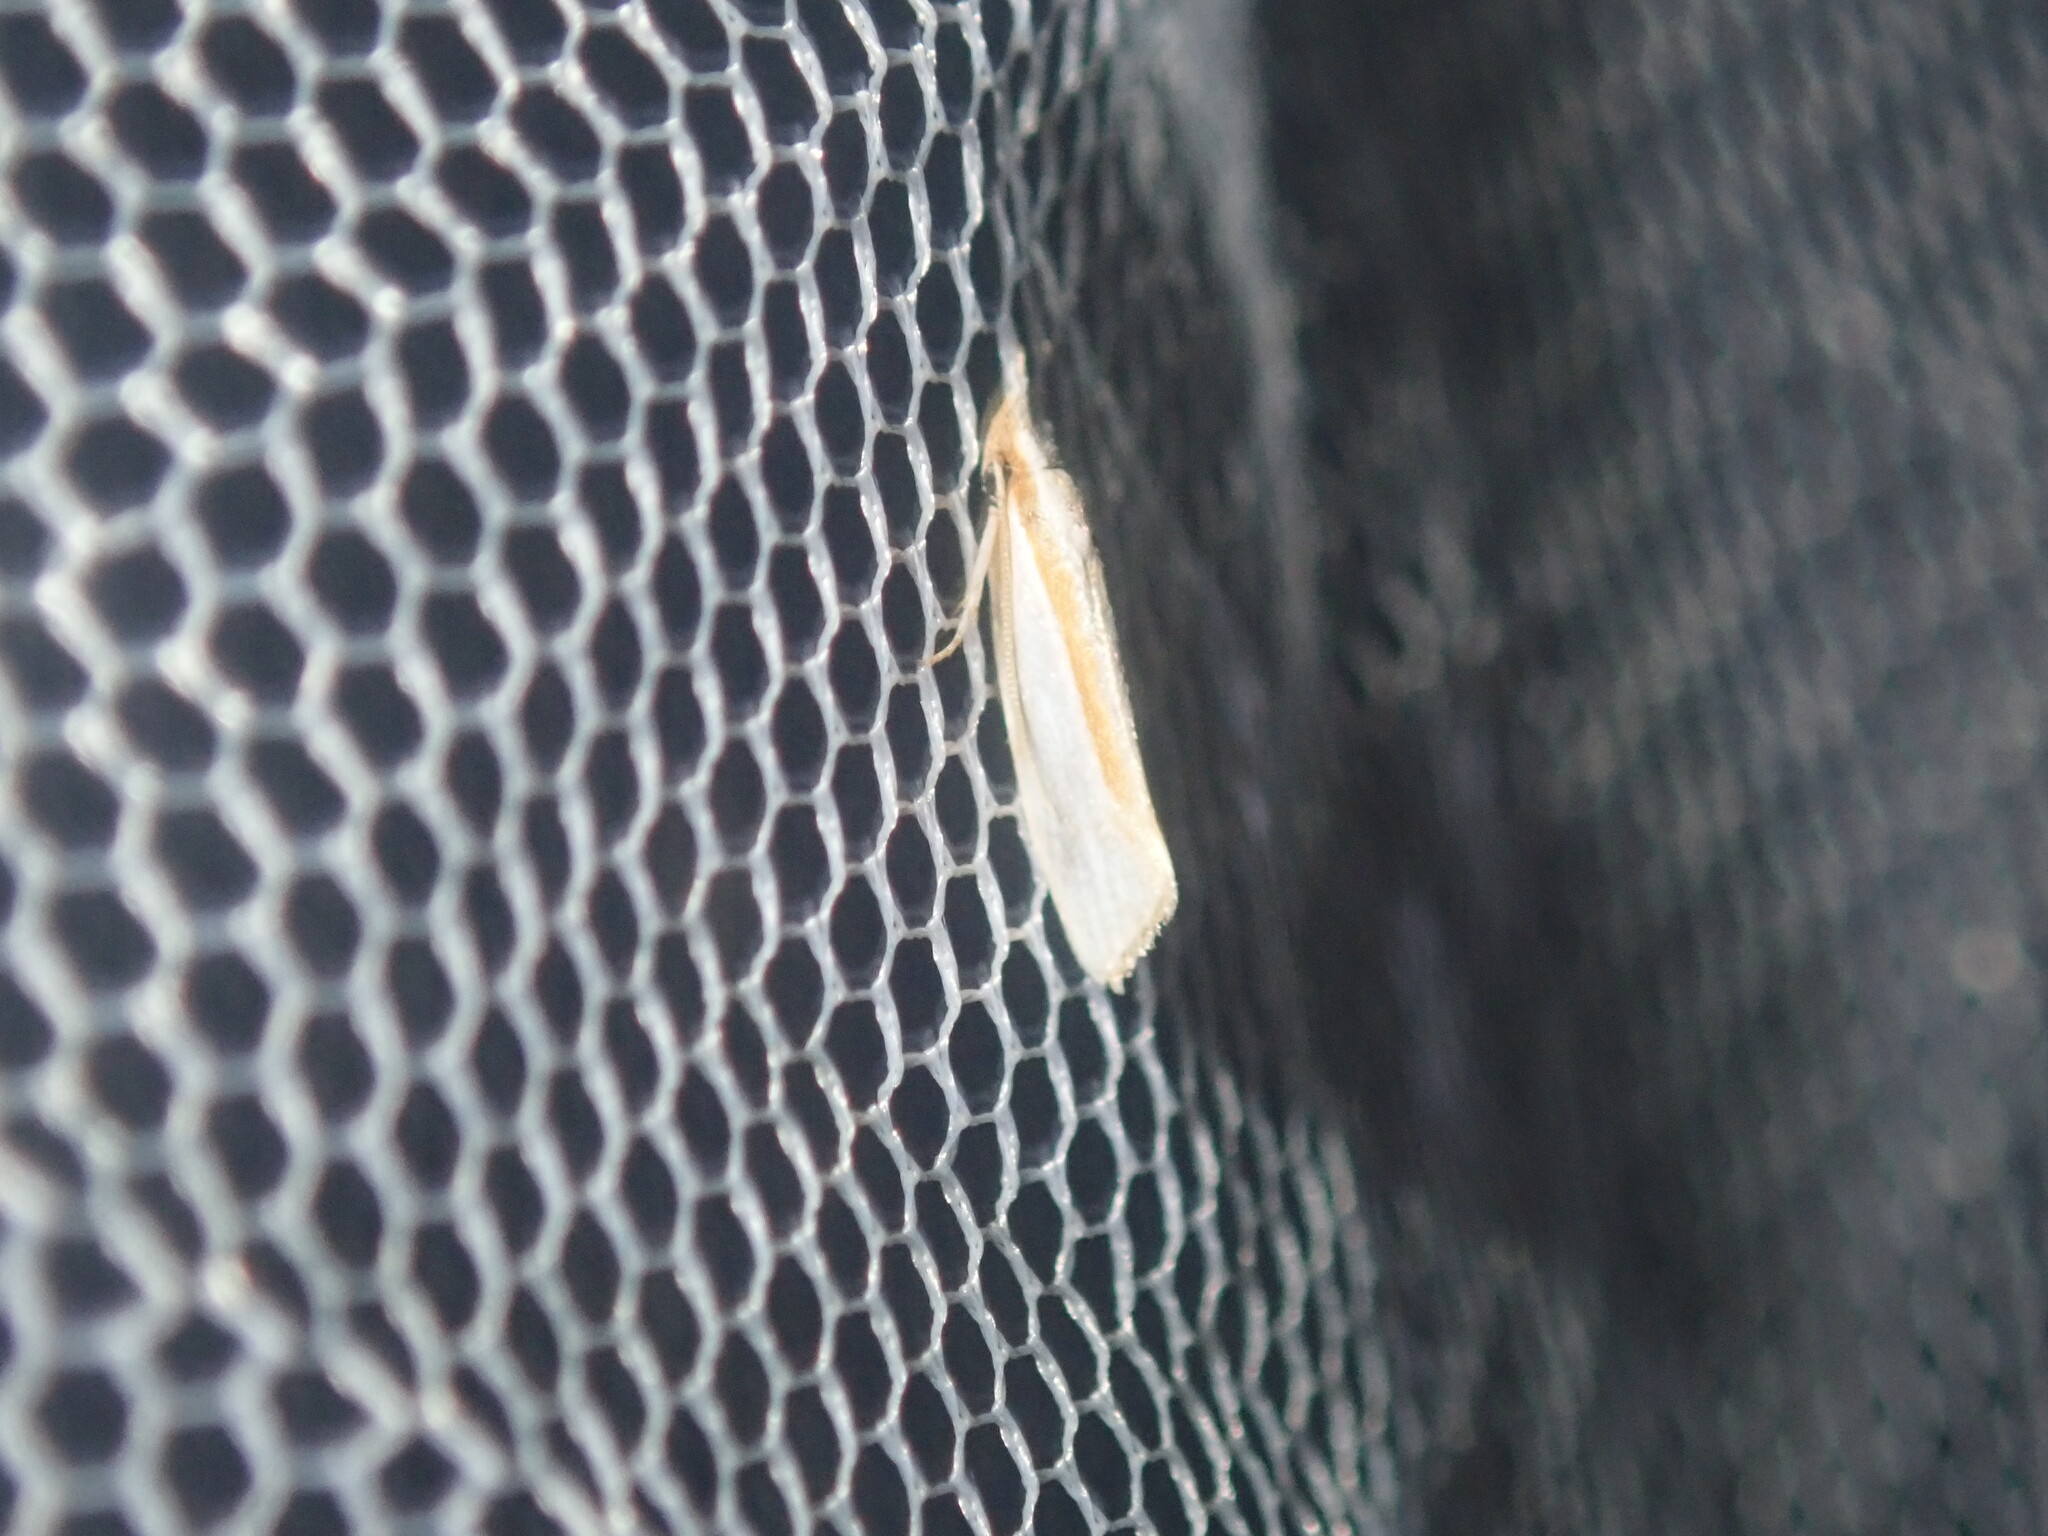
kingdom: Animalia
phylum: Arthropoda
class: Insecta
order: Lepidoptera
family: Depressariidae
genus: Thudaca
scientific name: Thudaca circumdatella
